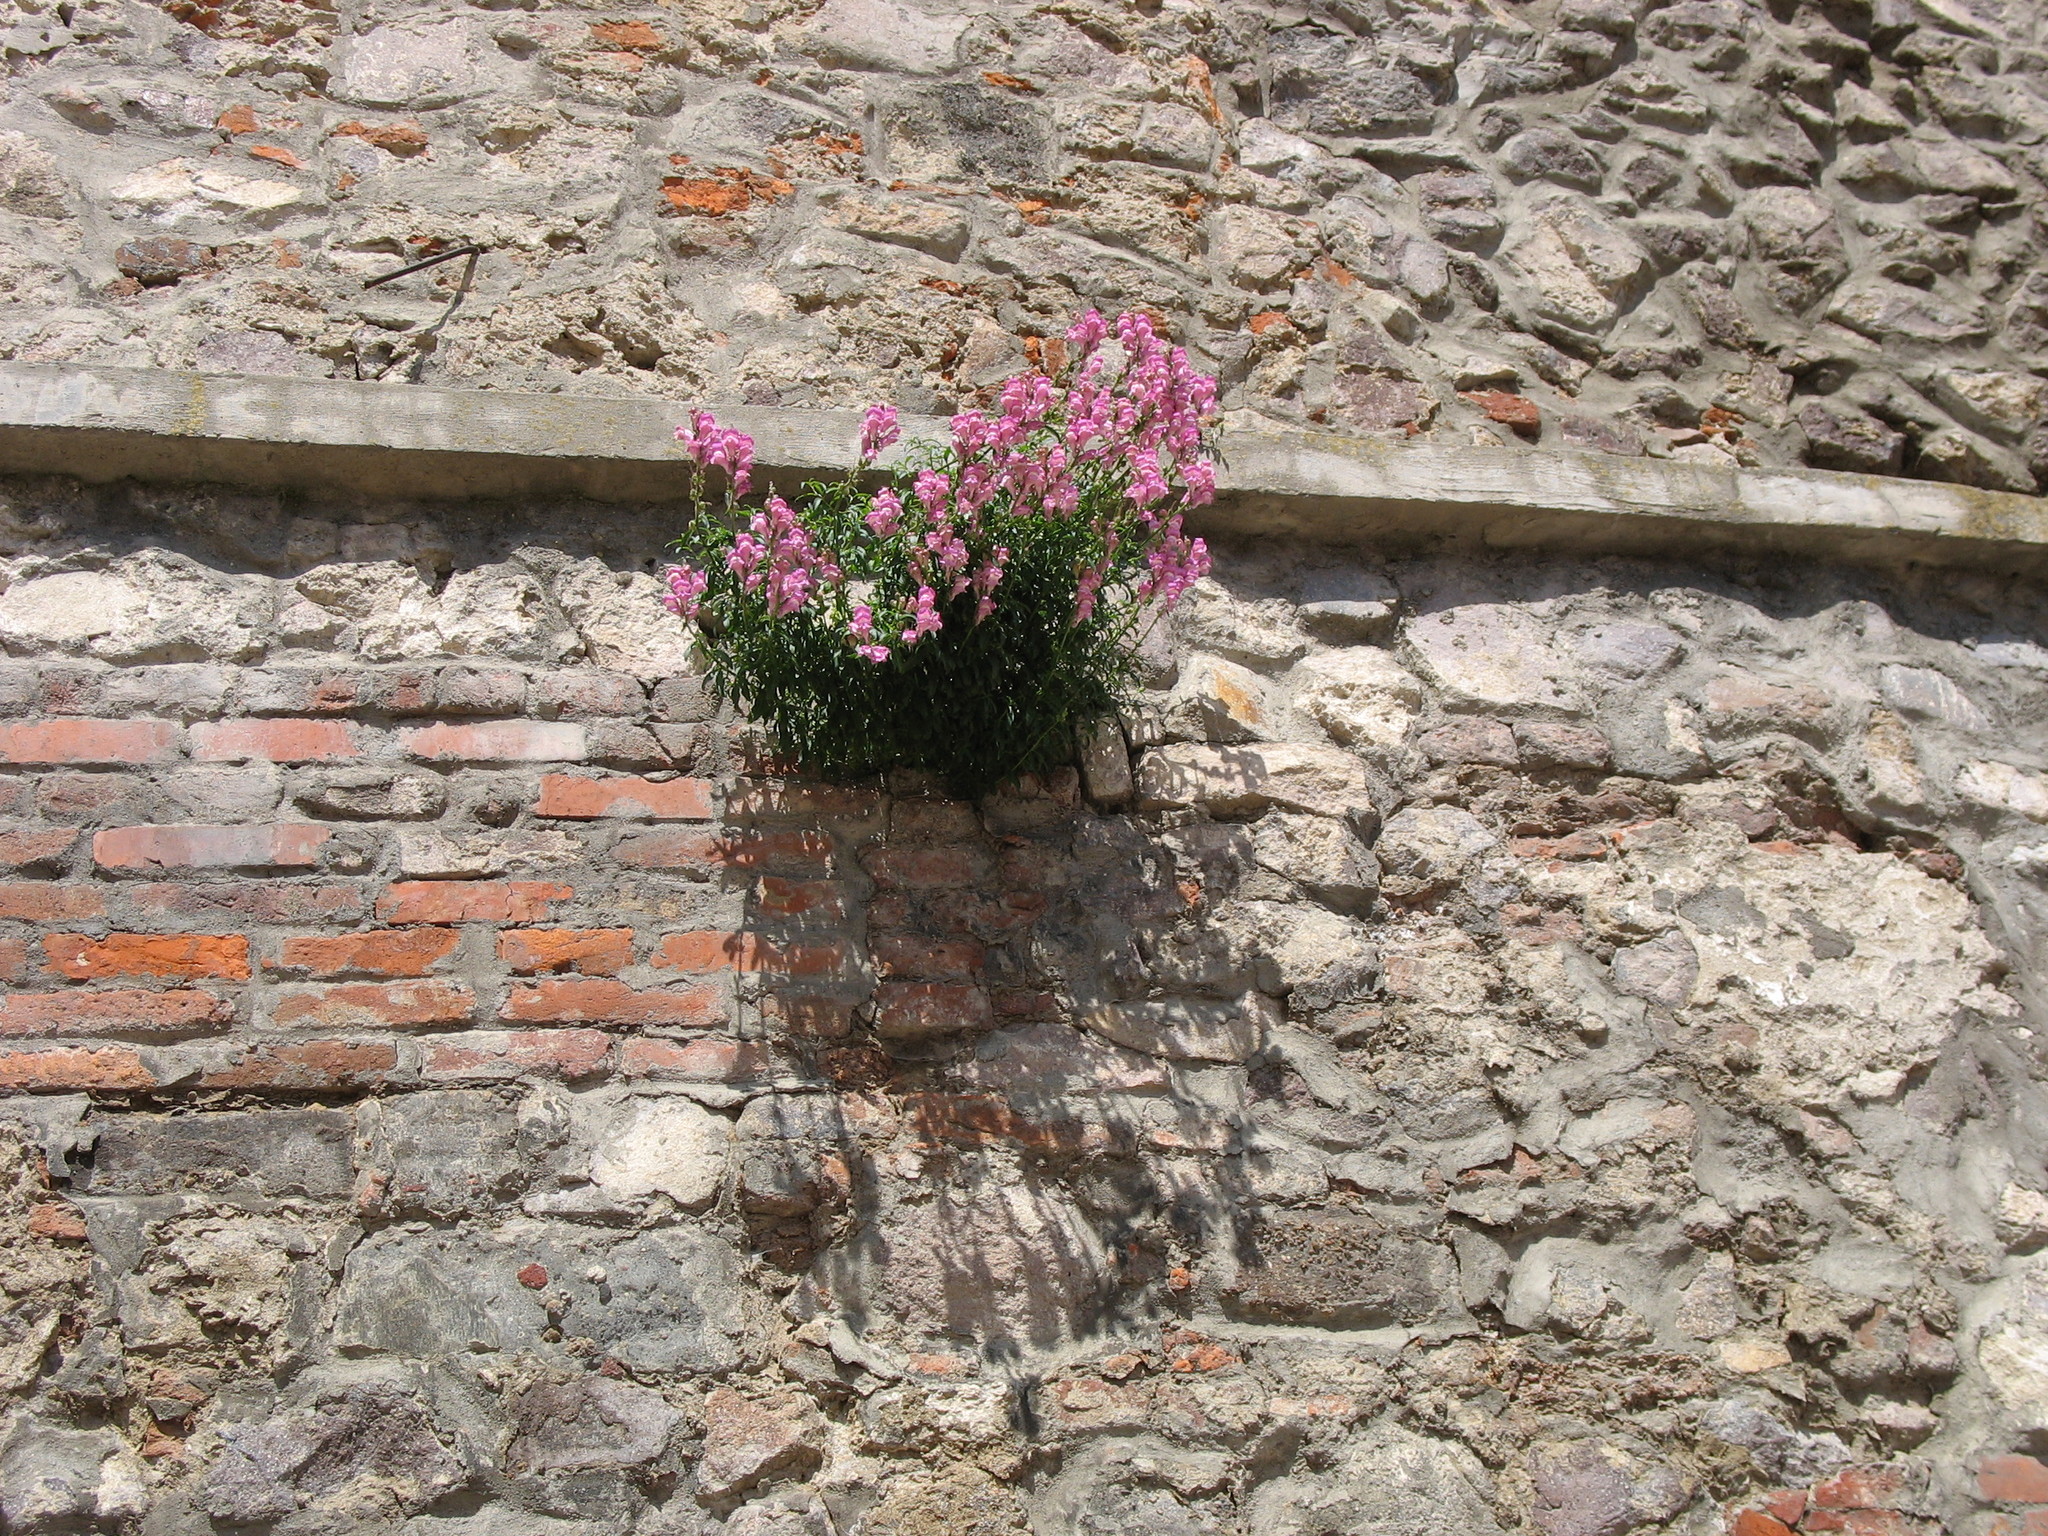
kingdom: Plantae
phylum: Tracheophyta
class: Magnoliopsida
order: Lamiales
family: Plantaginaceae
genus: Antirrhinum
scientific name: Antirrhinum majus
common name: Snapdragon
